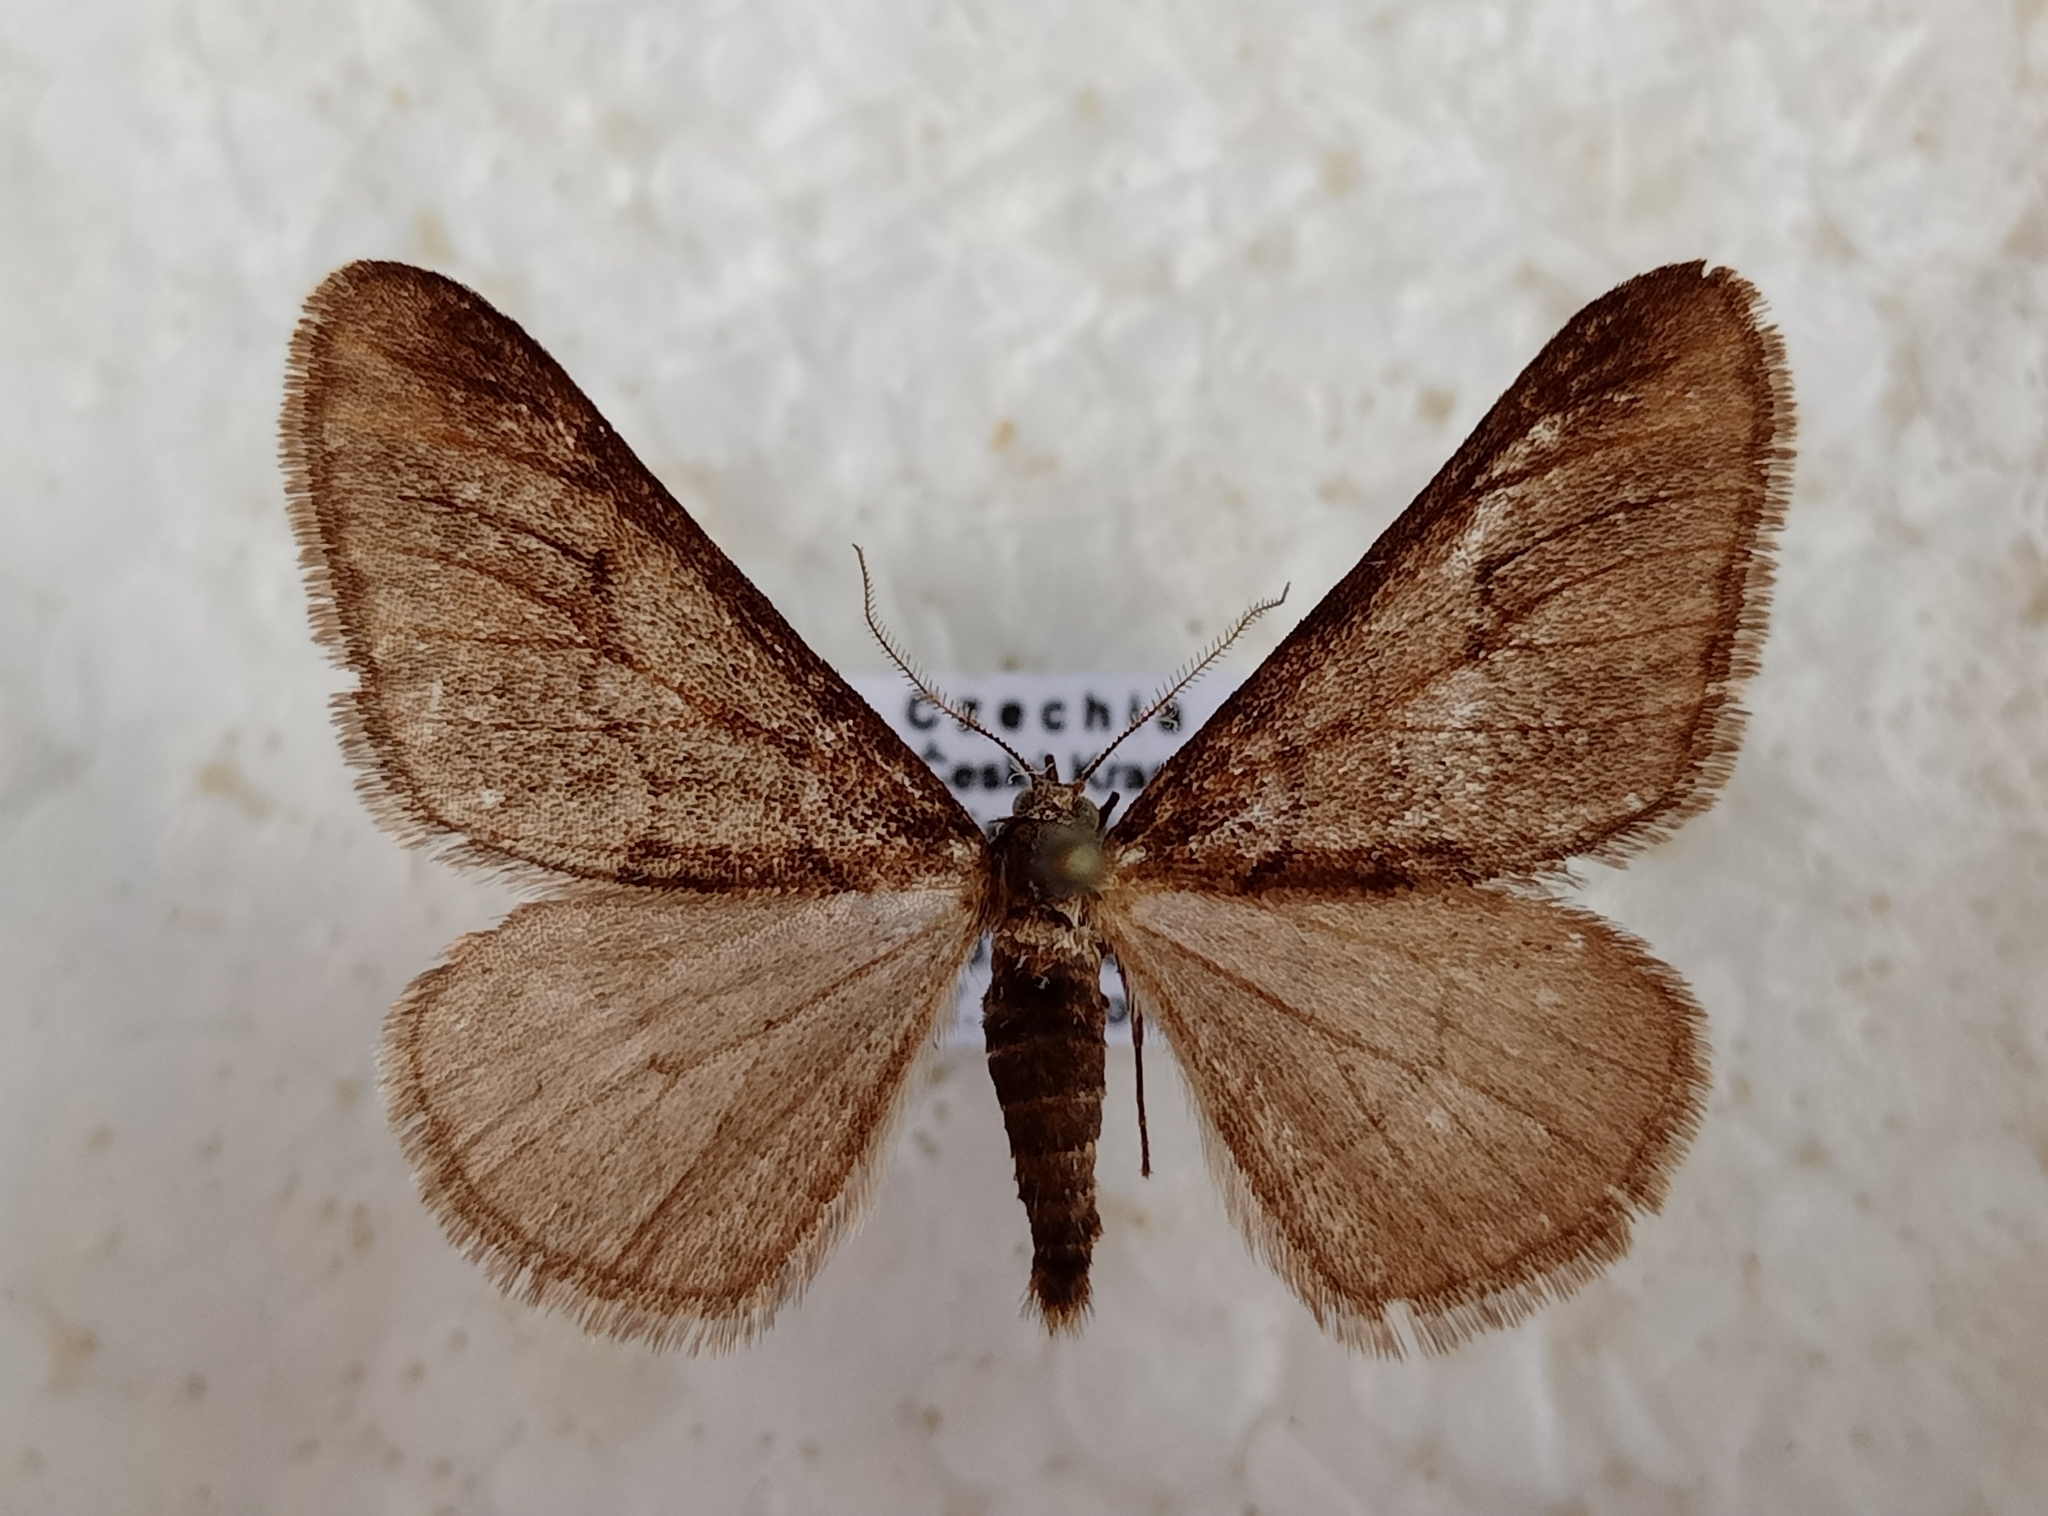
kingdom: Animalia
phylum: Arthropoda
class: Insecta
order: Lepidoptera
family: Geometridae
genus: Agriopis
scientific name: Agriopis leucophaearia
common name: Spring usher
